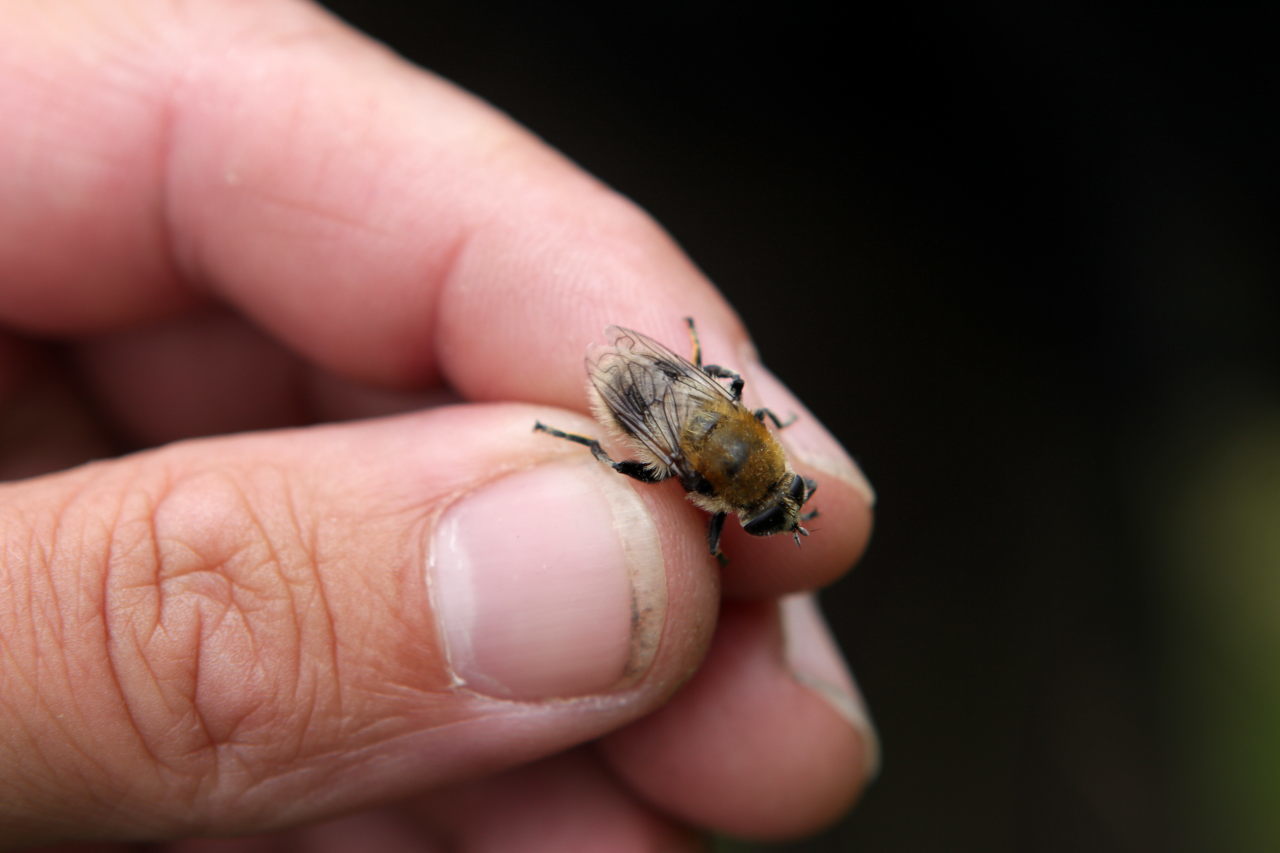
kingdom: Animalia
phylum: Arthropoda
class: Insecta
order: Diptera
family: Syrphidae
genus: Merodon
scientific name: Merodon equestris
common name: Greater bulb-fly
